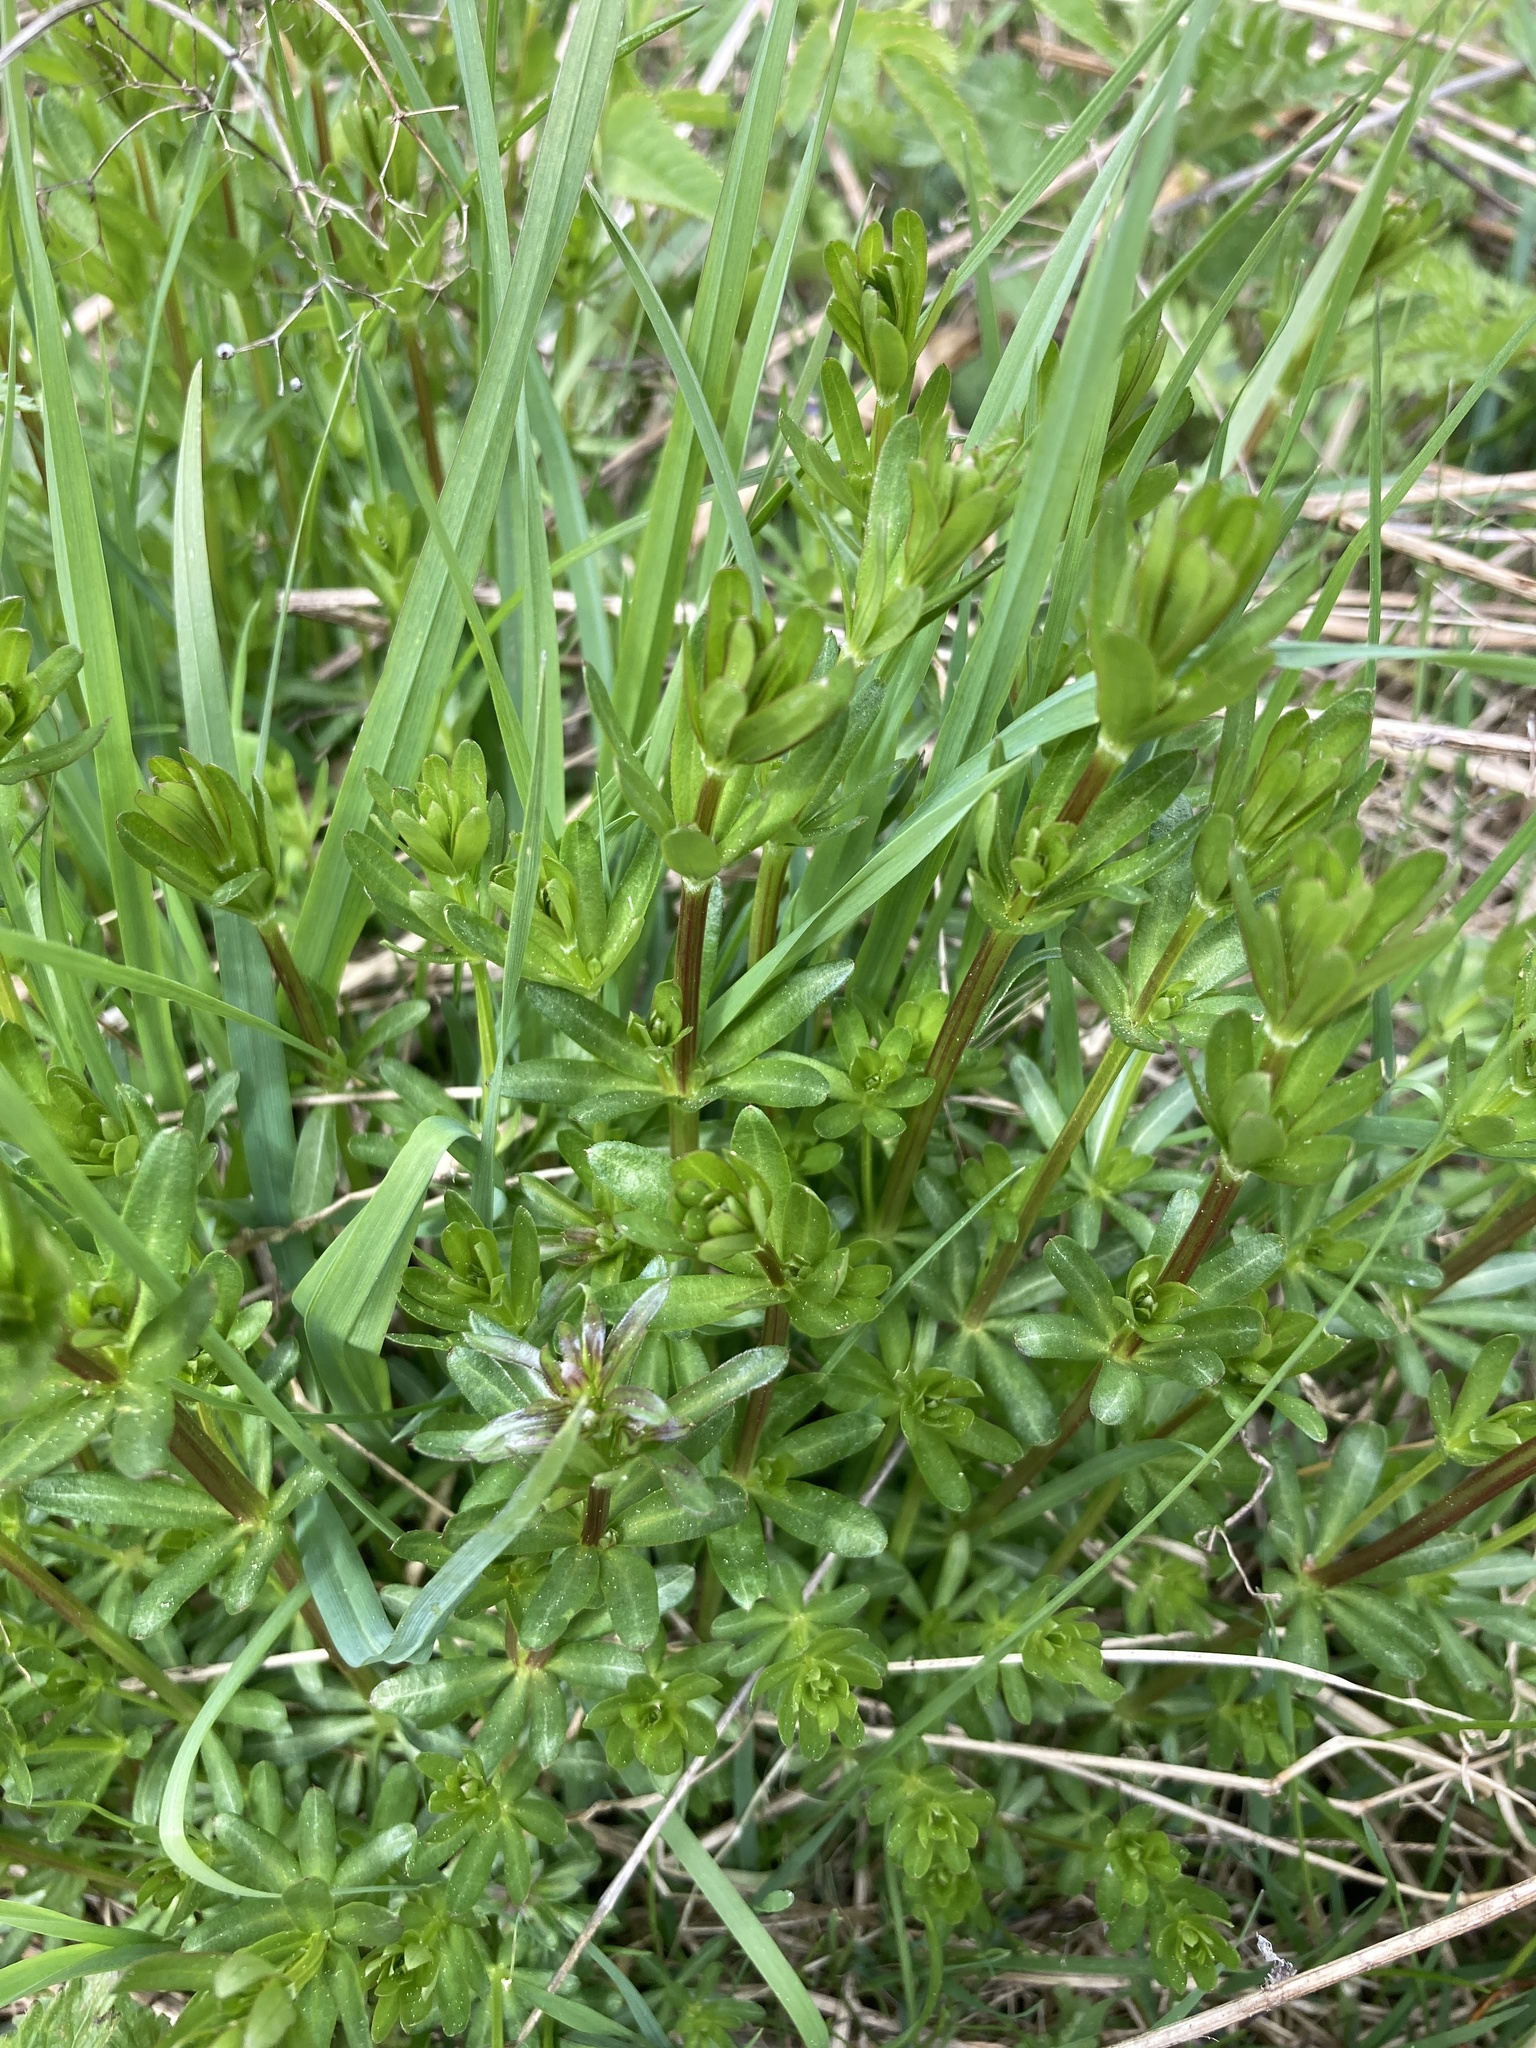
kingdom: Plantae
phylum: Tracheophyta
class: Magnoliopsida
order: Gentianales
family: Rubiaceae
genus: Galium
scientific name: Galium mollugo
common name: Hedge bedstraw
